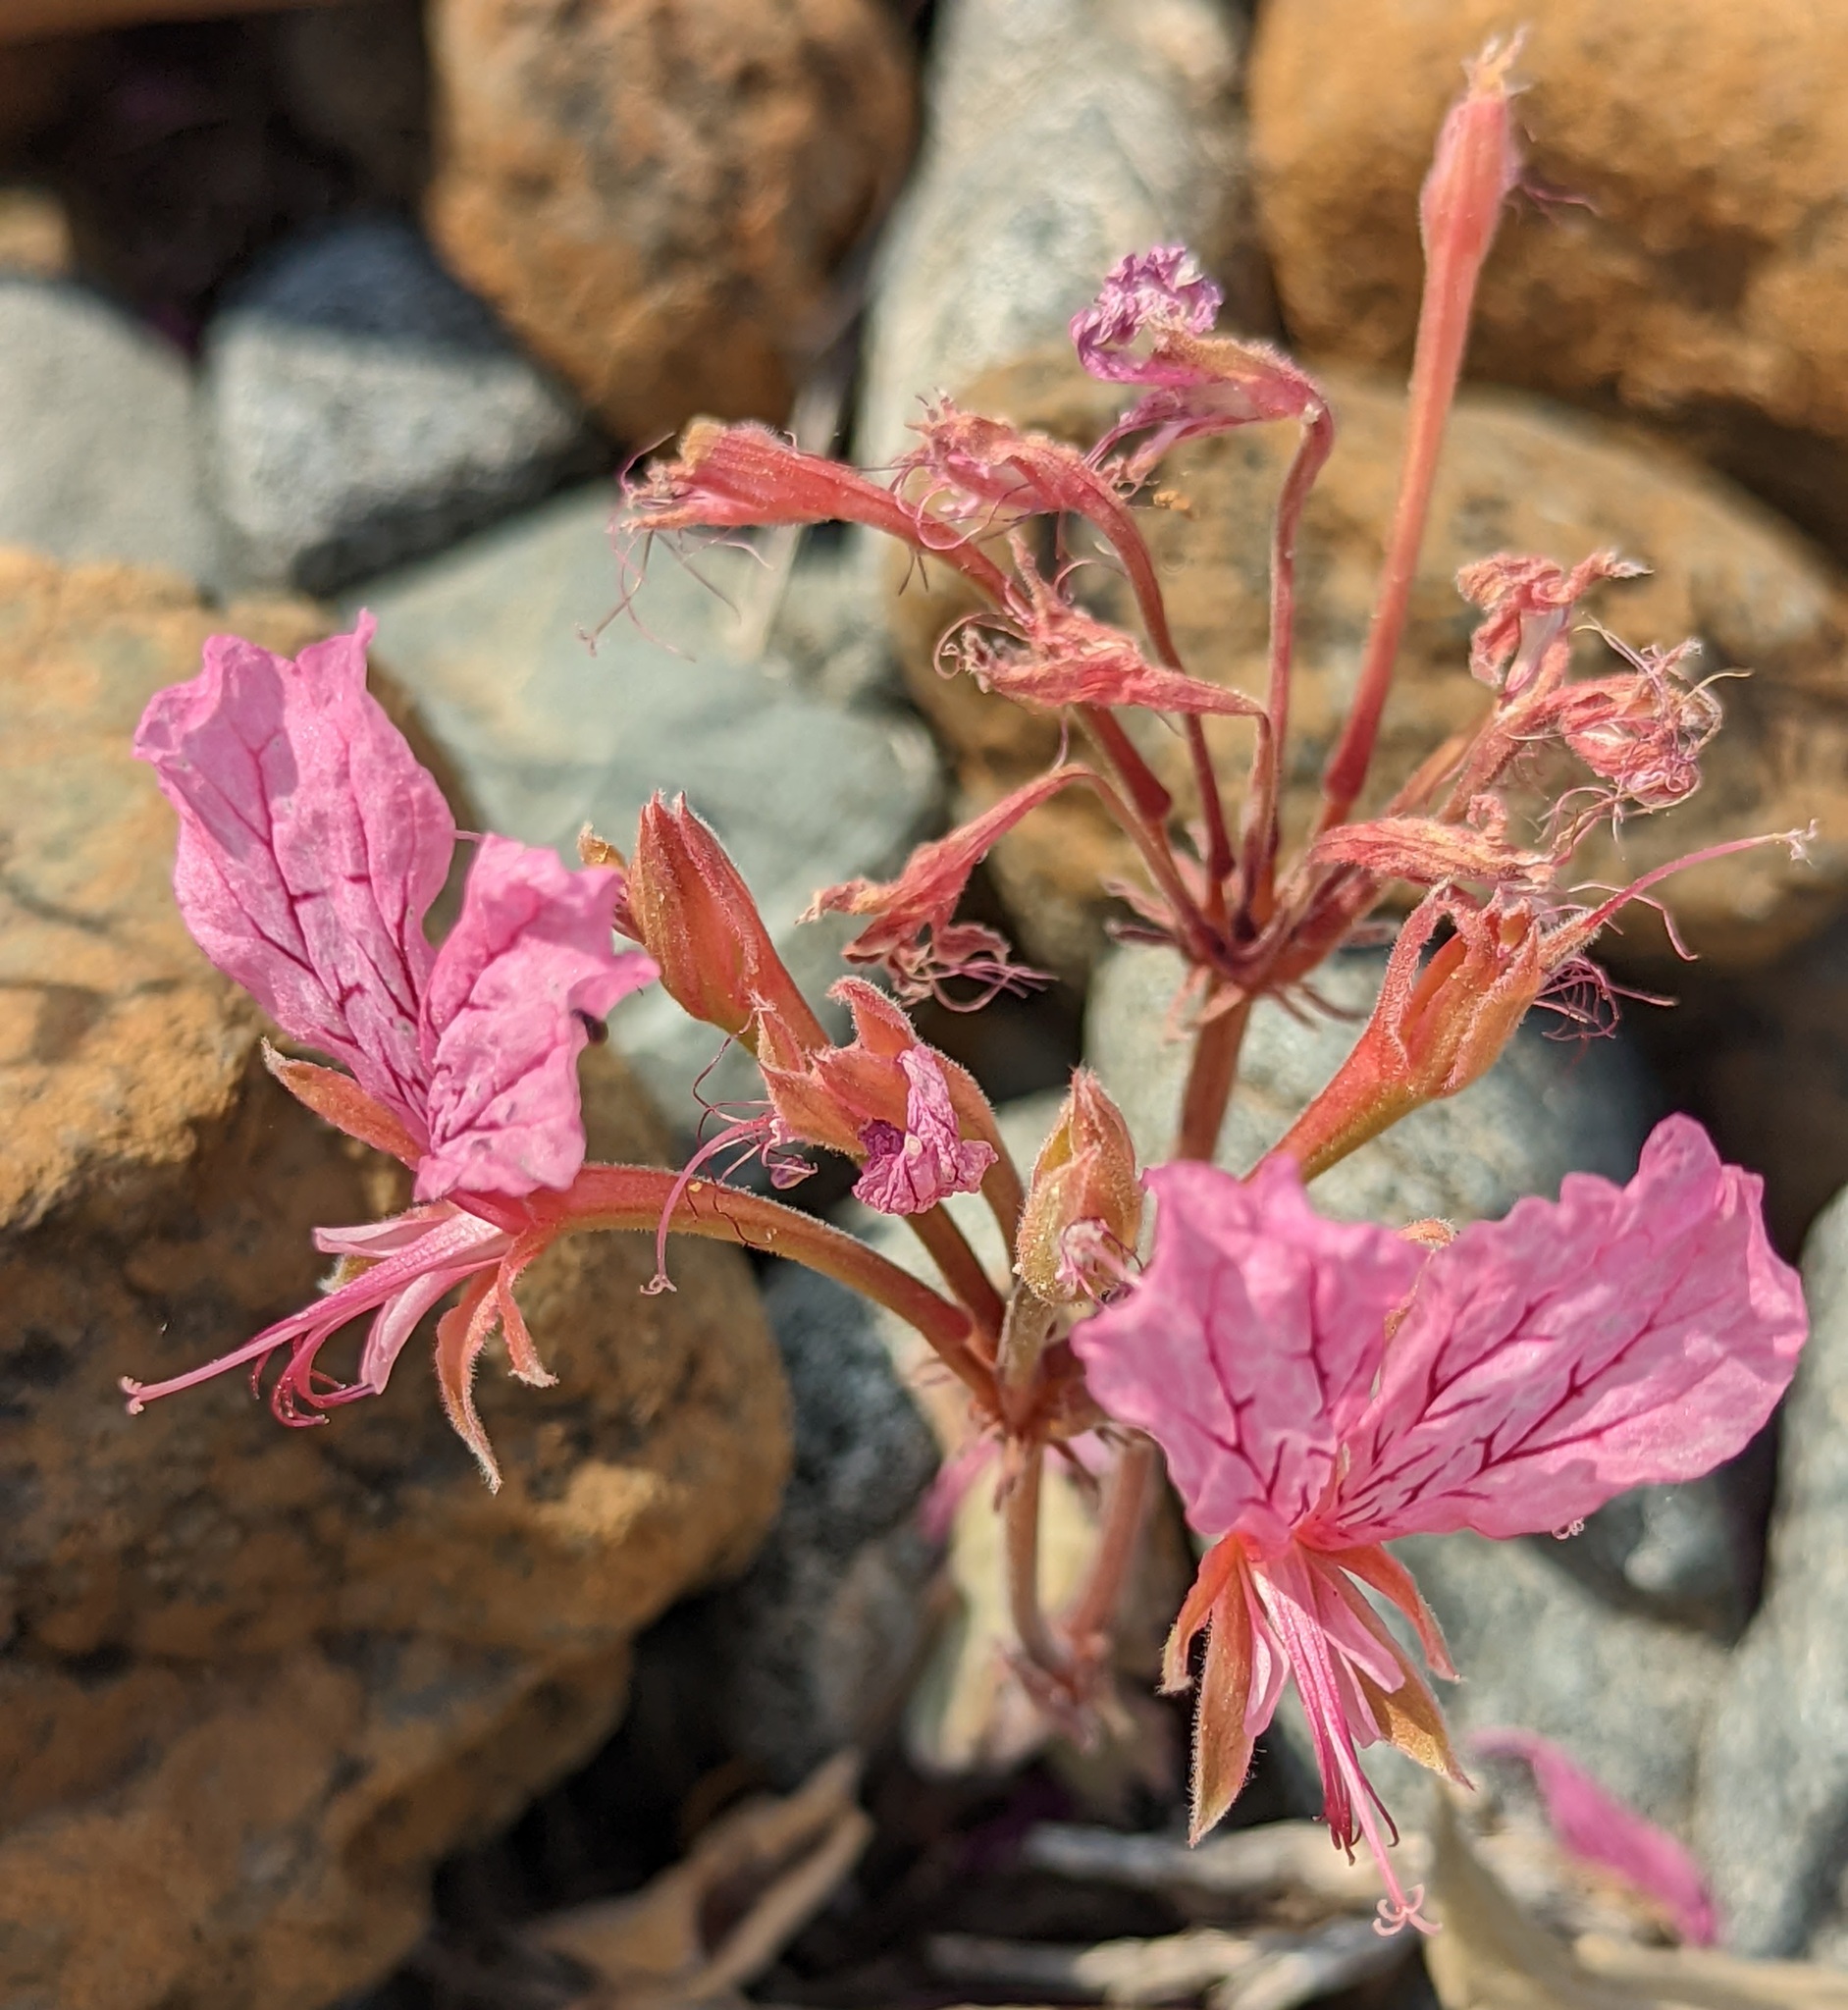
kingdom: Plantae
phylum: Tracheophyta
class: Magnoliopsida
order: Geraniales
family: Geraniaceae
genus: Pelargonium
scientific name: Pelargonium endlicherianum
